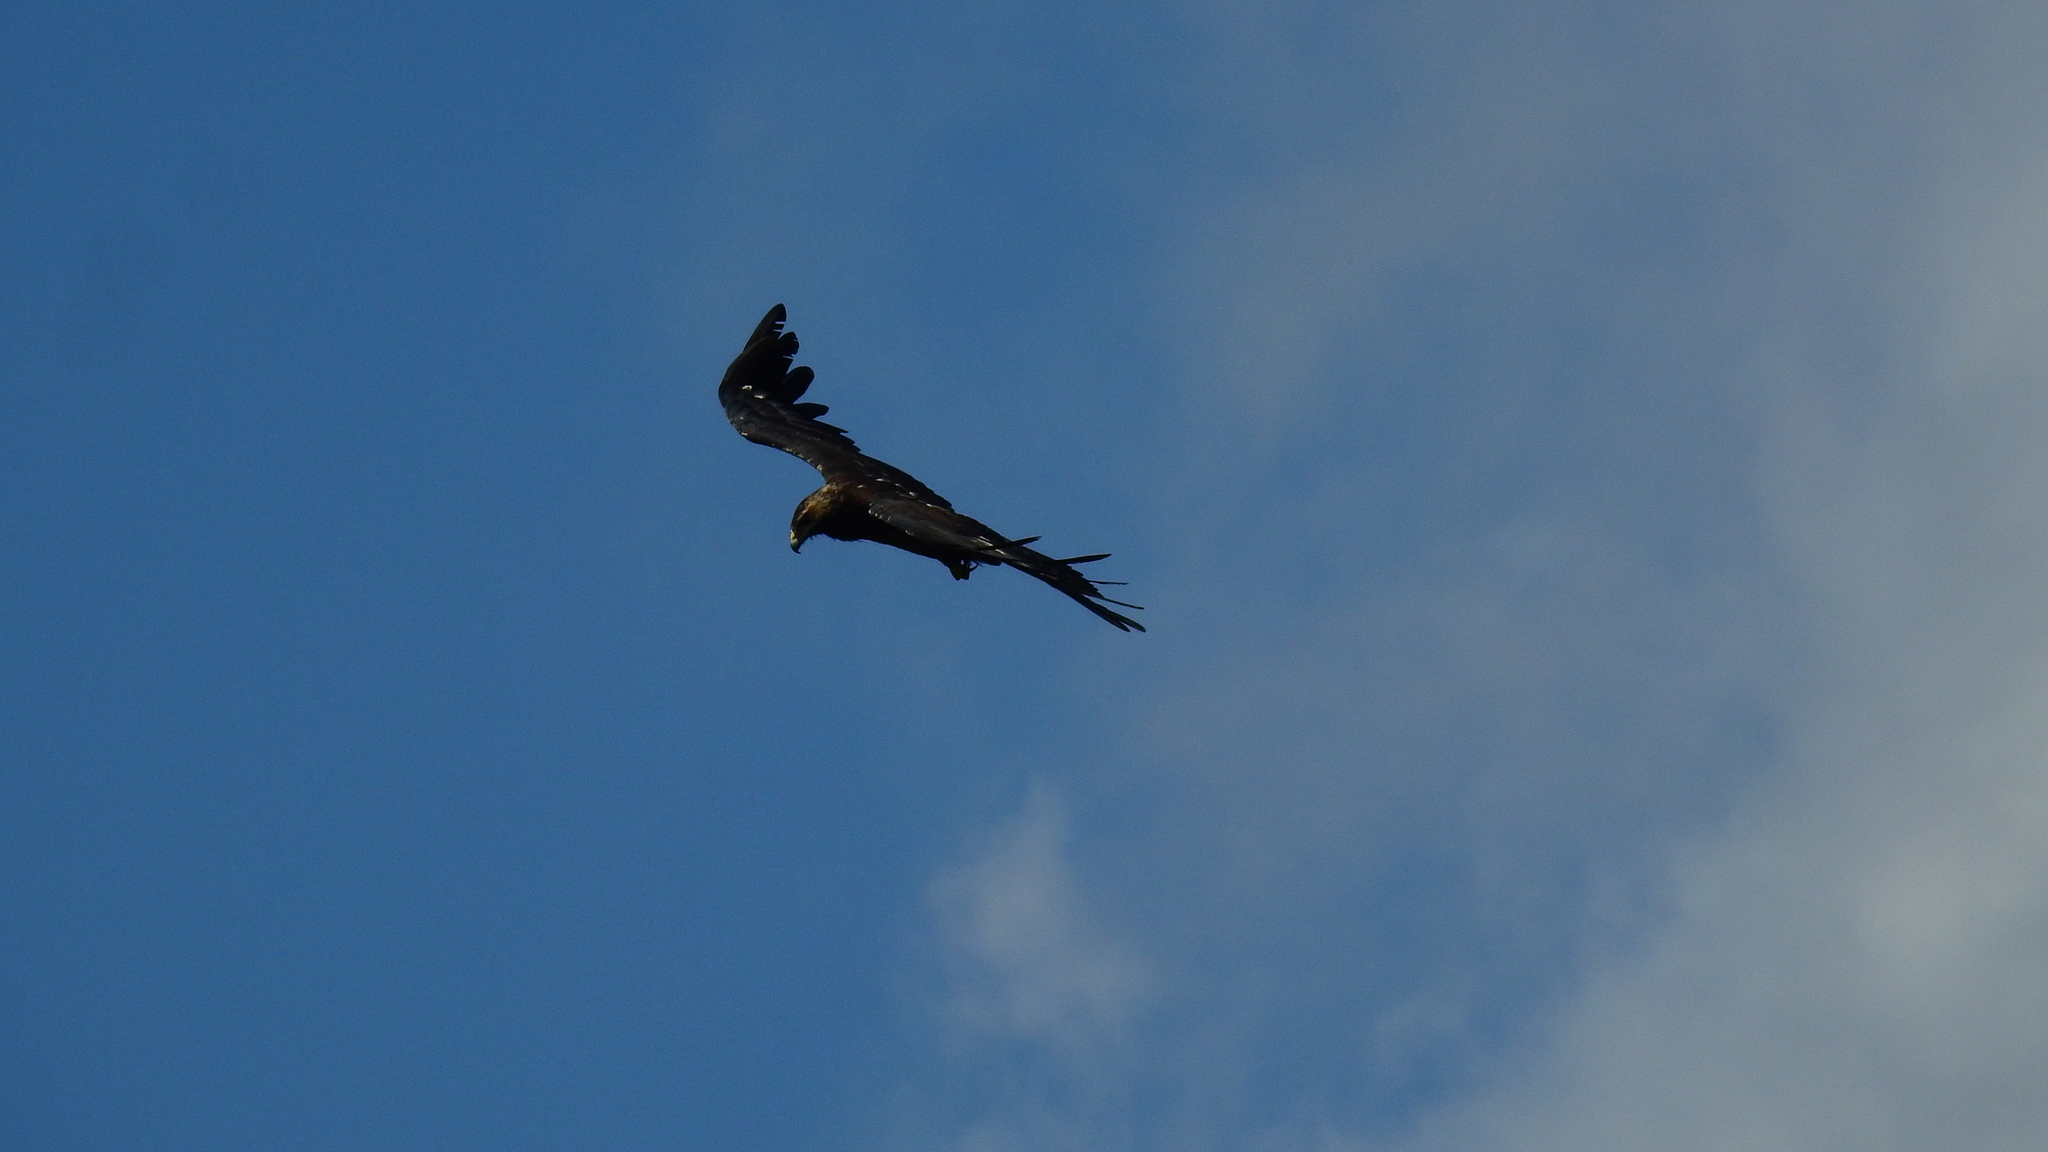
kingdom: Animalia
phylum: Chordata
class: Aves
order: Accipitriformes
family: Accipitridae
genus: Ictinaetus
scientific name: Ictinaetus malayensis
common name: Black eagle
